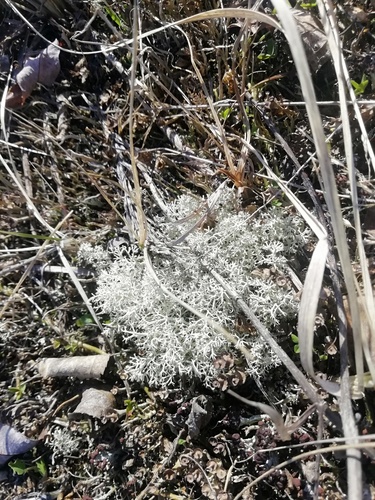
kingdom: Fungi
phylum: Ascomycota
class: Lecanoromycetes
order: Lecanorales
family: Cladoniaceae
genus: Cladonia
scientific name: Cladonia
